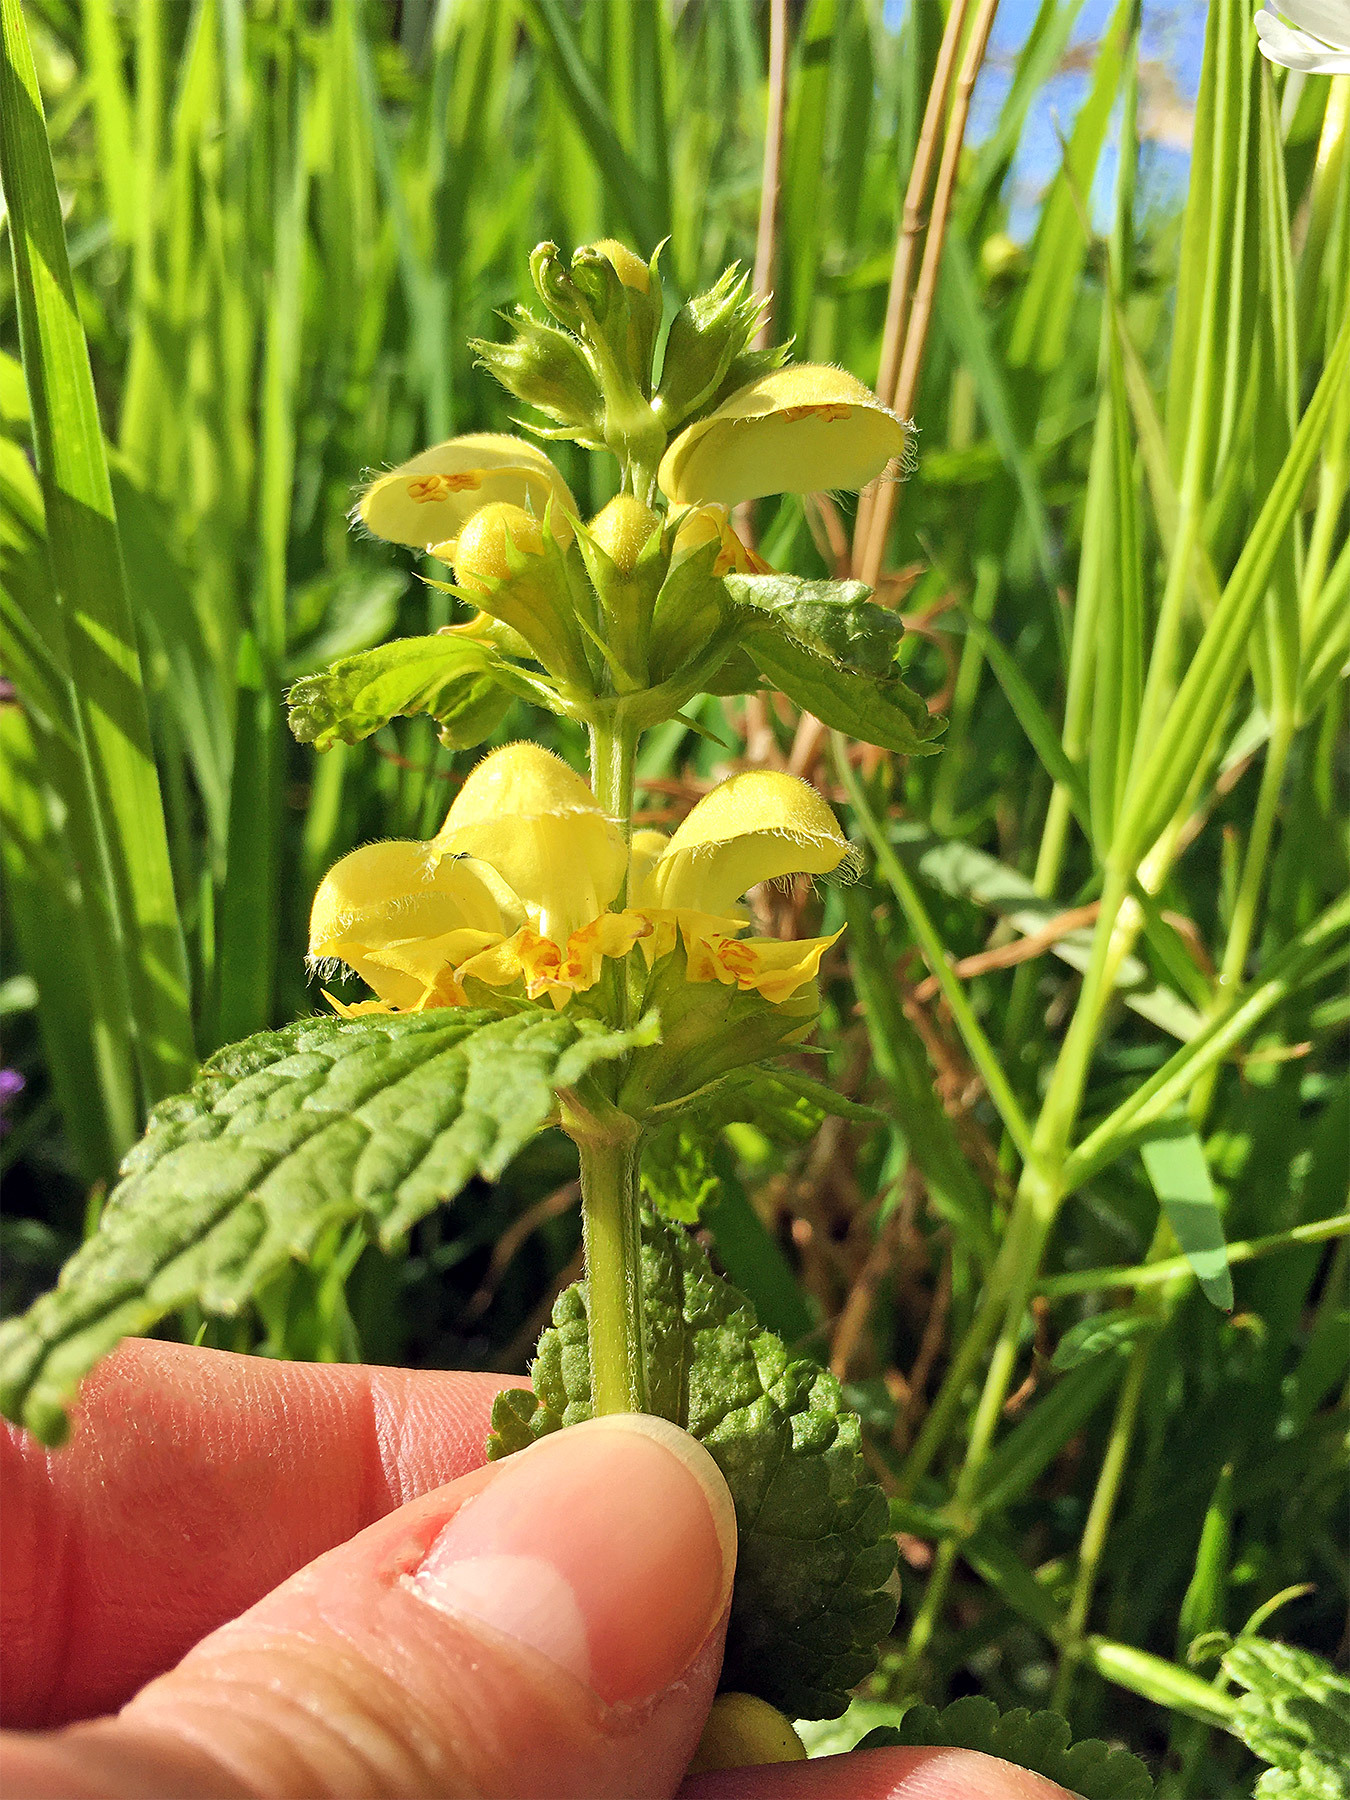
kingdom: Plantae
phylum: Tracheophyta
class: Magnoliopsida
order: Lamiales
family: Lamiaceae
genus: Lamium
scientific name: Lamium galeobdolon
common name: Yellow archangel
